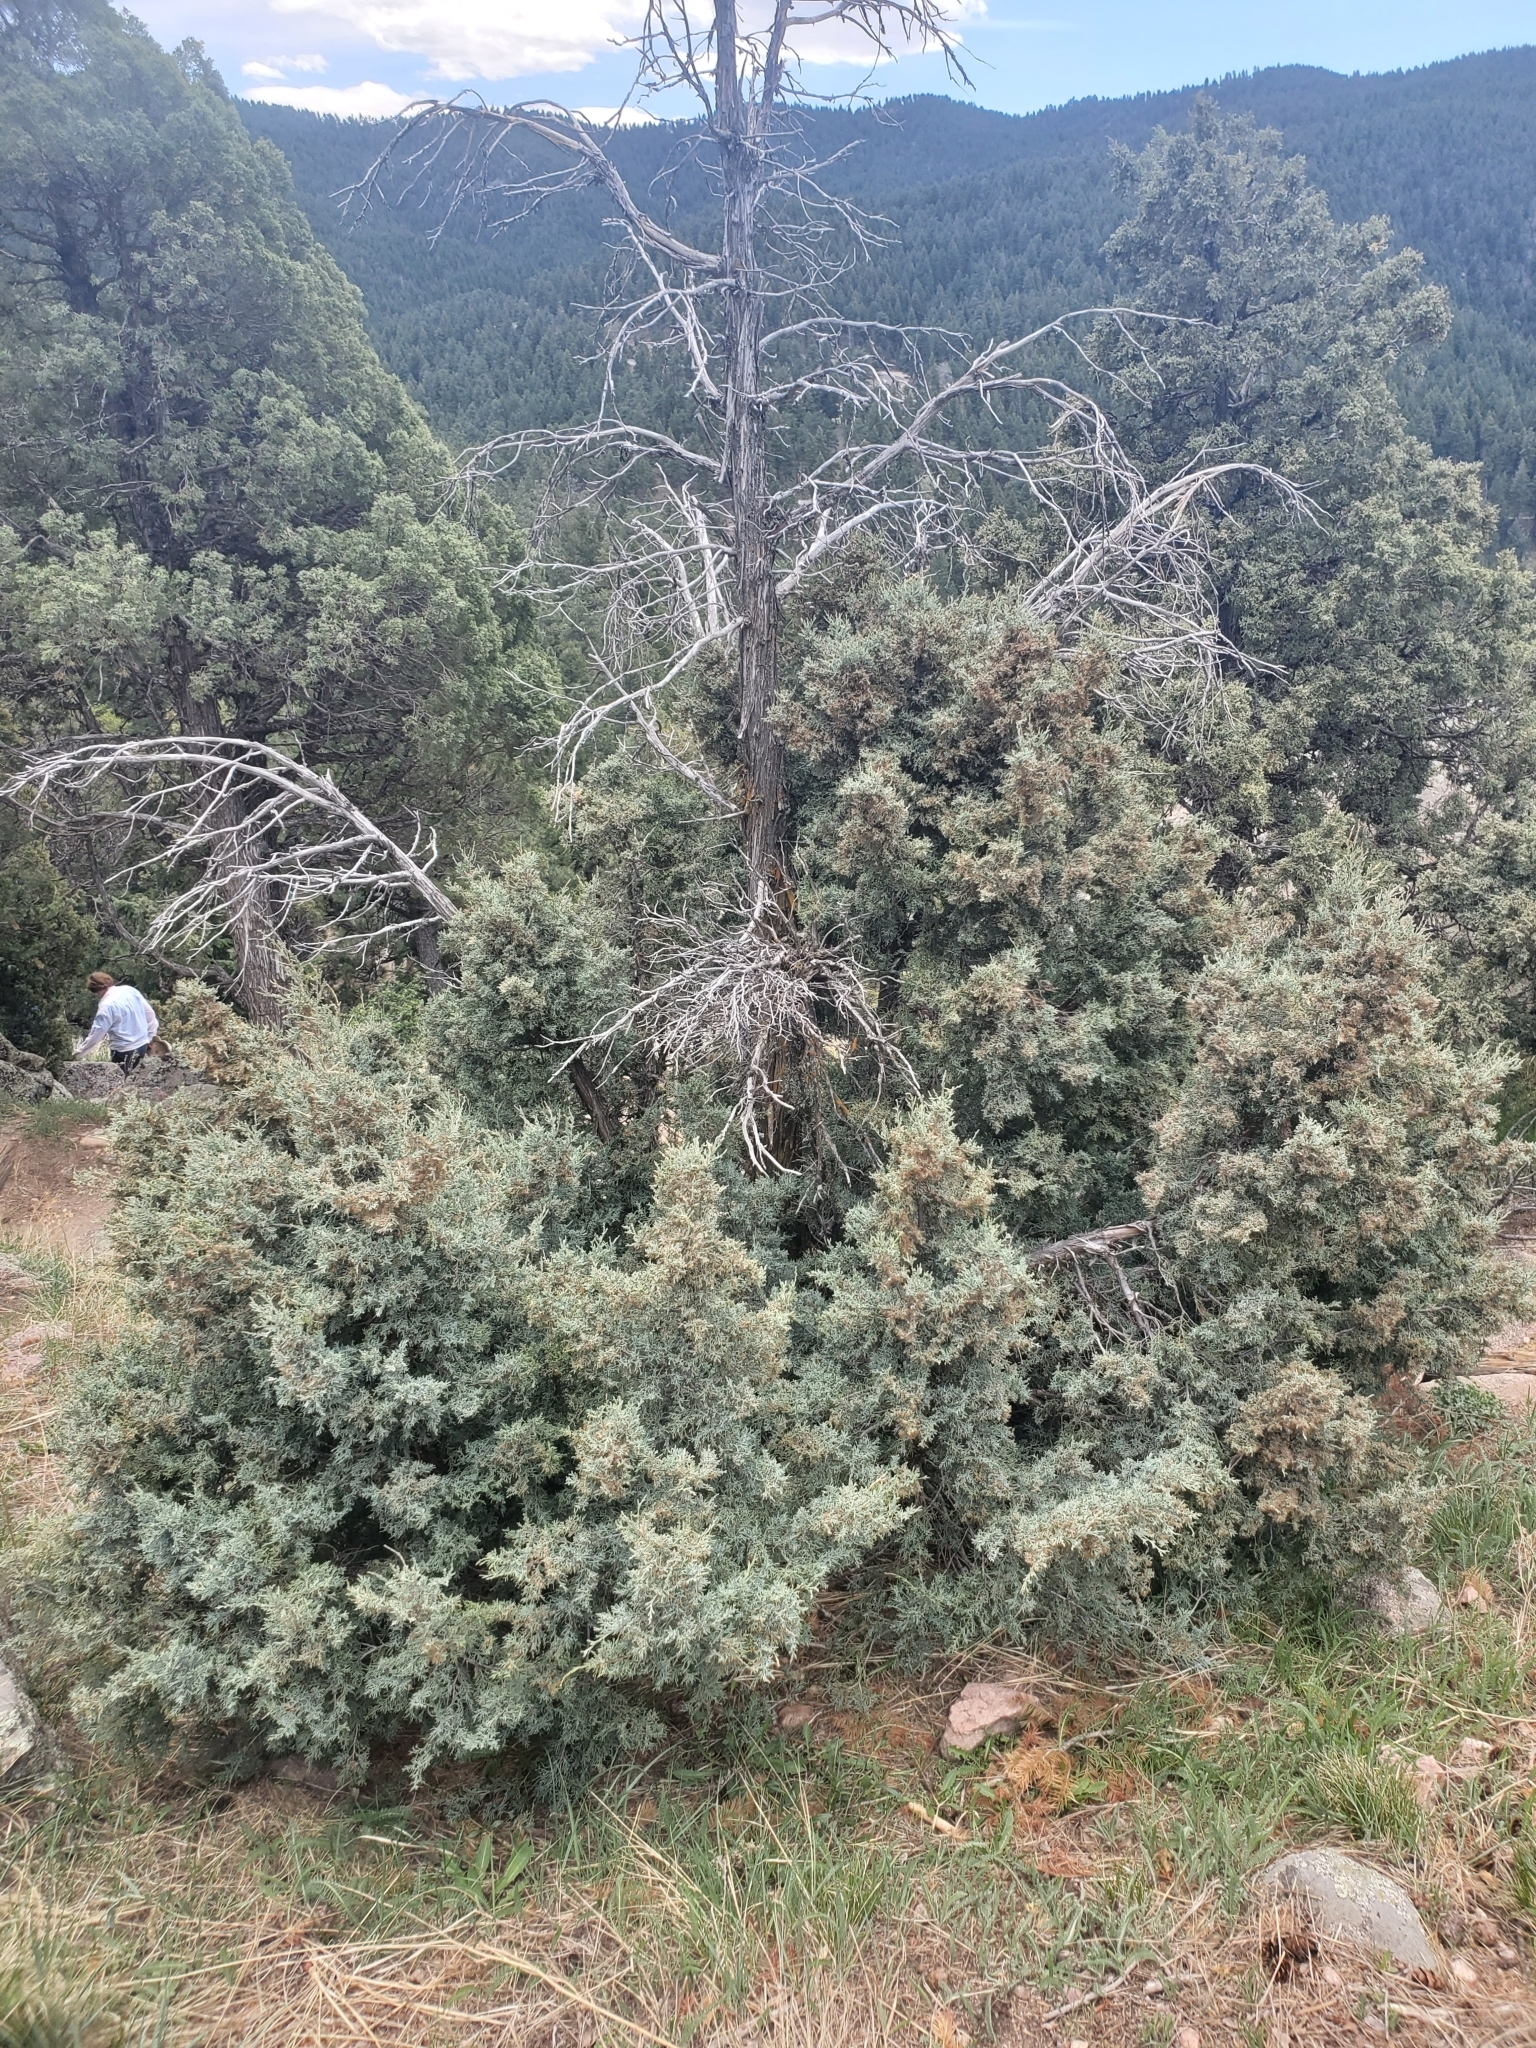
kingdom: Plantae
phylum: Tracheophyta
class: Pinopsida
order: Pinales
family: Cupressaceae
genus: Juniperus
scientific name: Juniperus scopulorum
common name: Rocky mountain juniper
